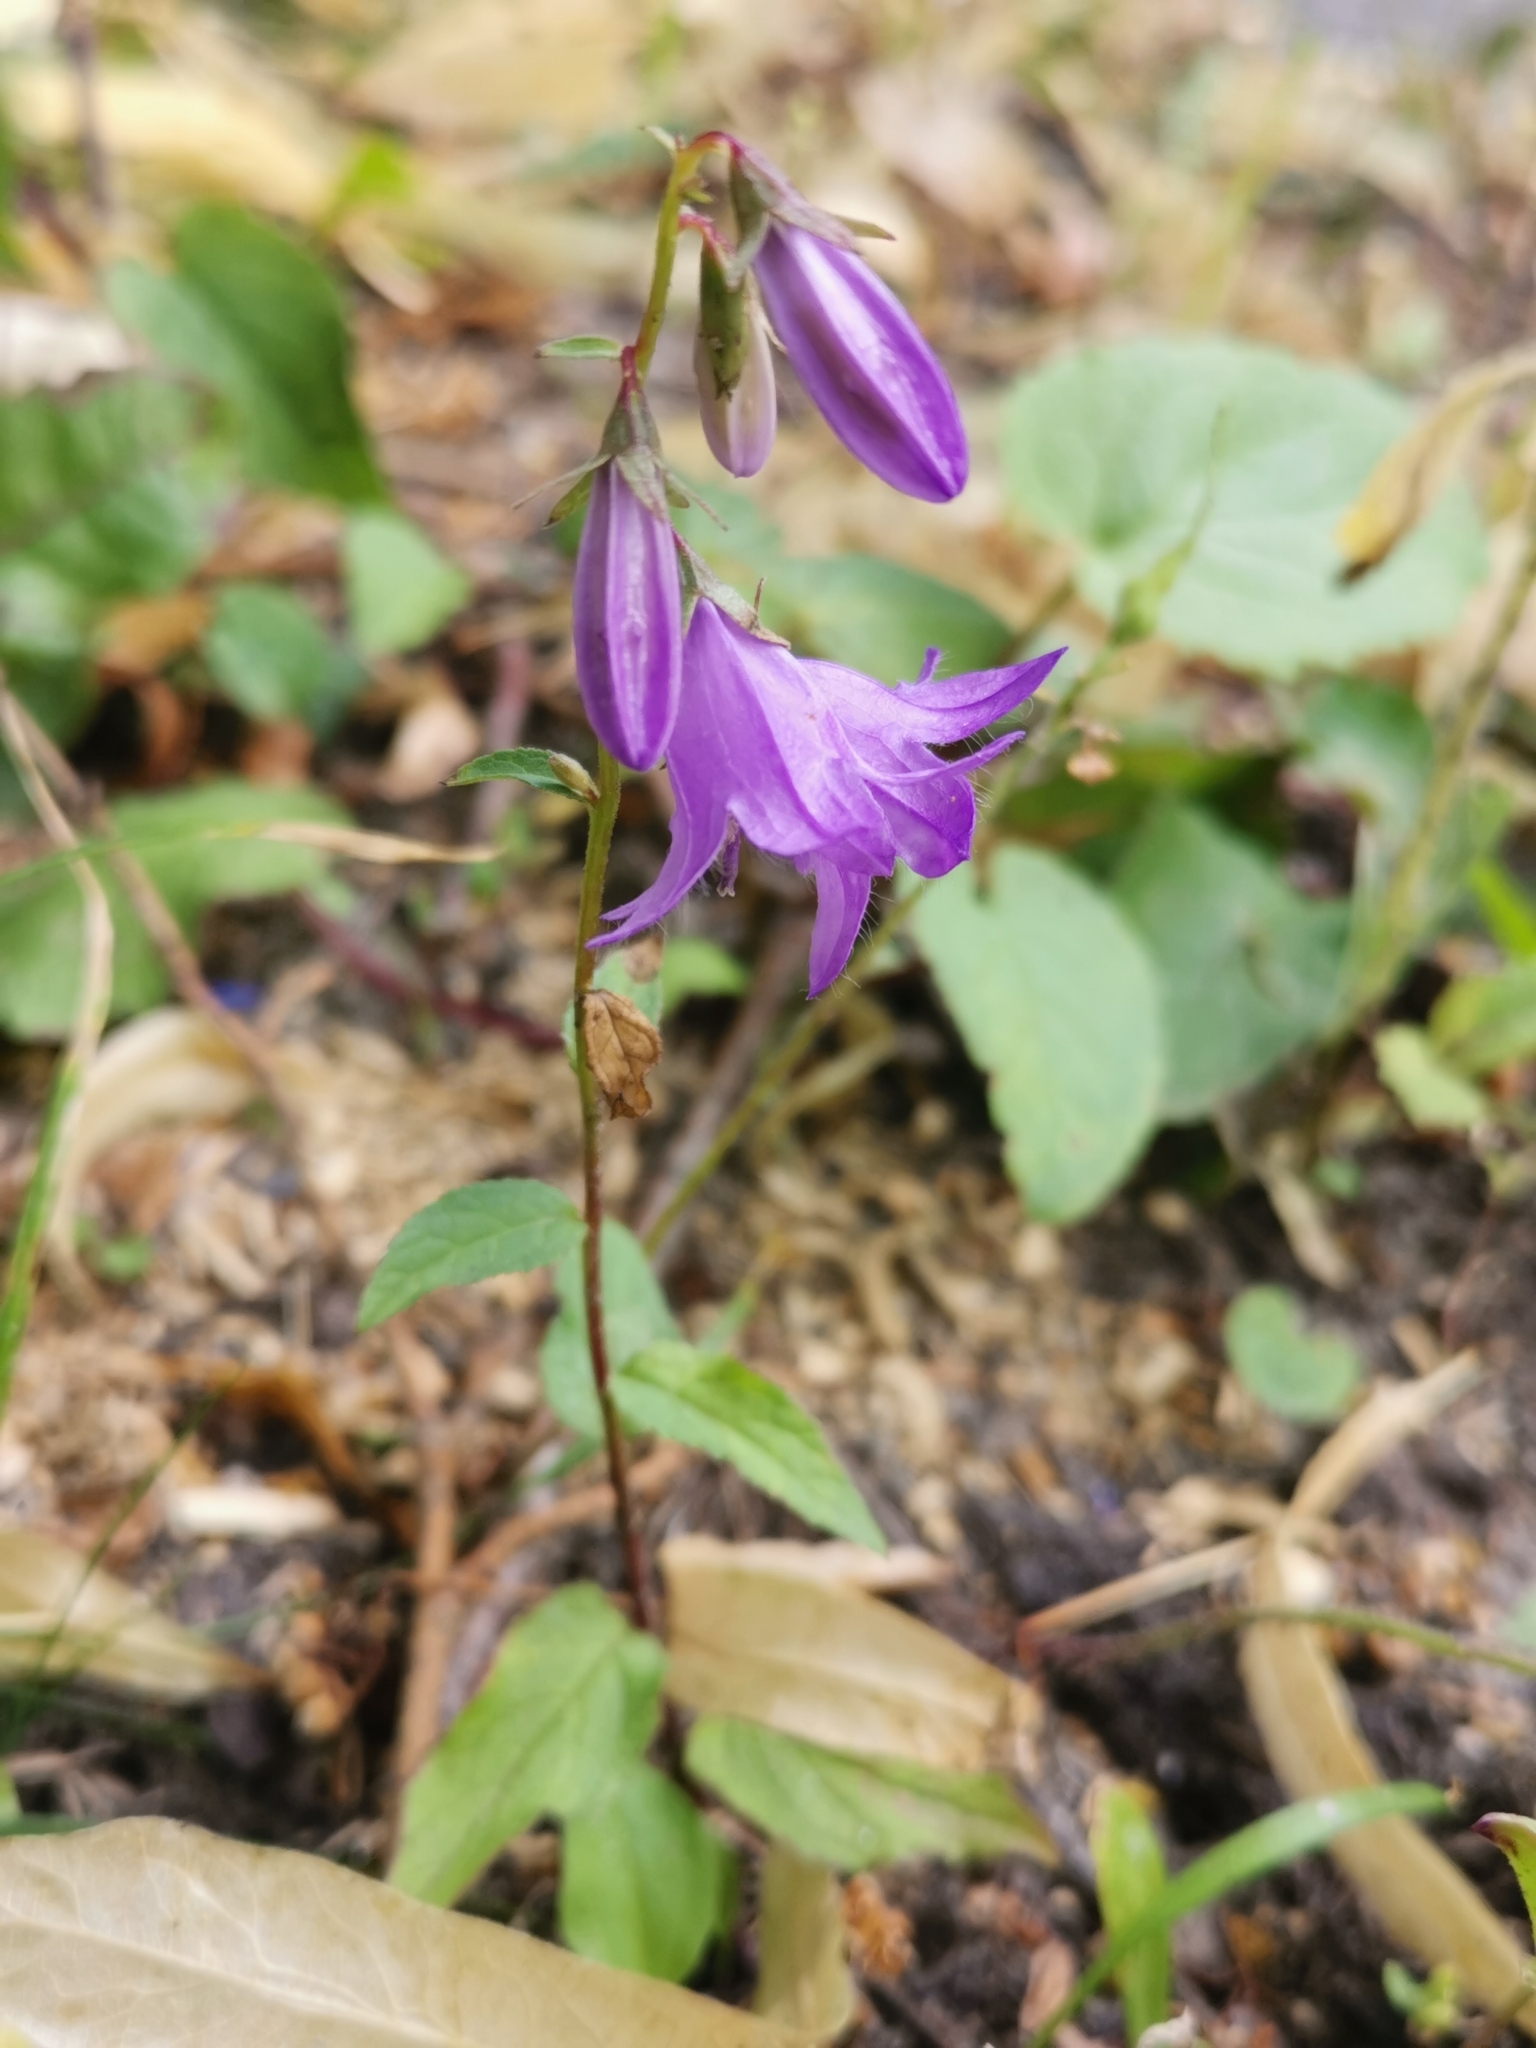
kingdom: Plantae
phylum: Tracheophyta
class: Magnoliopsida
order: Asterales
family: Campanulaceae
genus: Campanula
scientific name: Campanula rapunculoides
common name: Creeping bellflower
